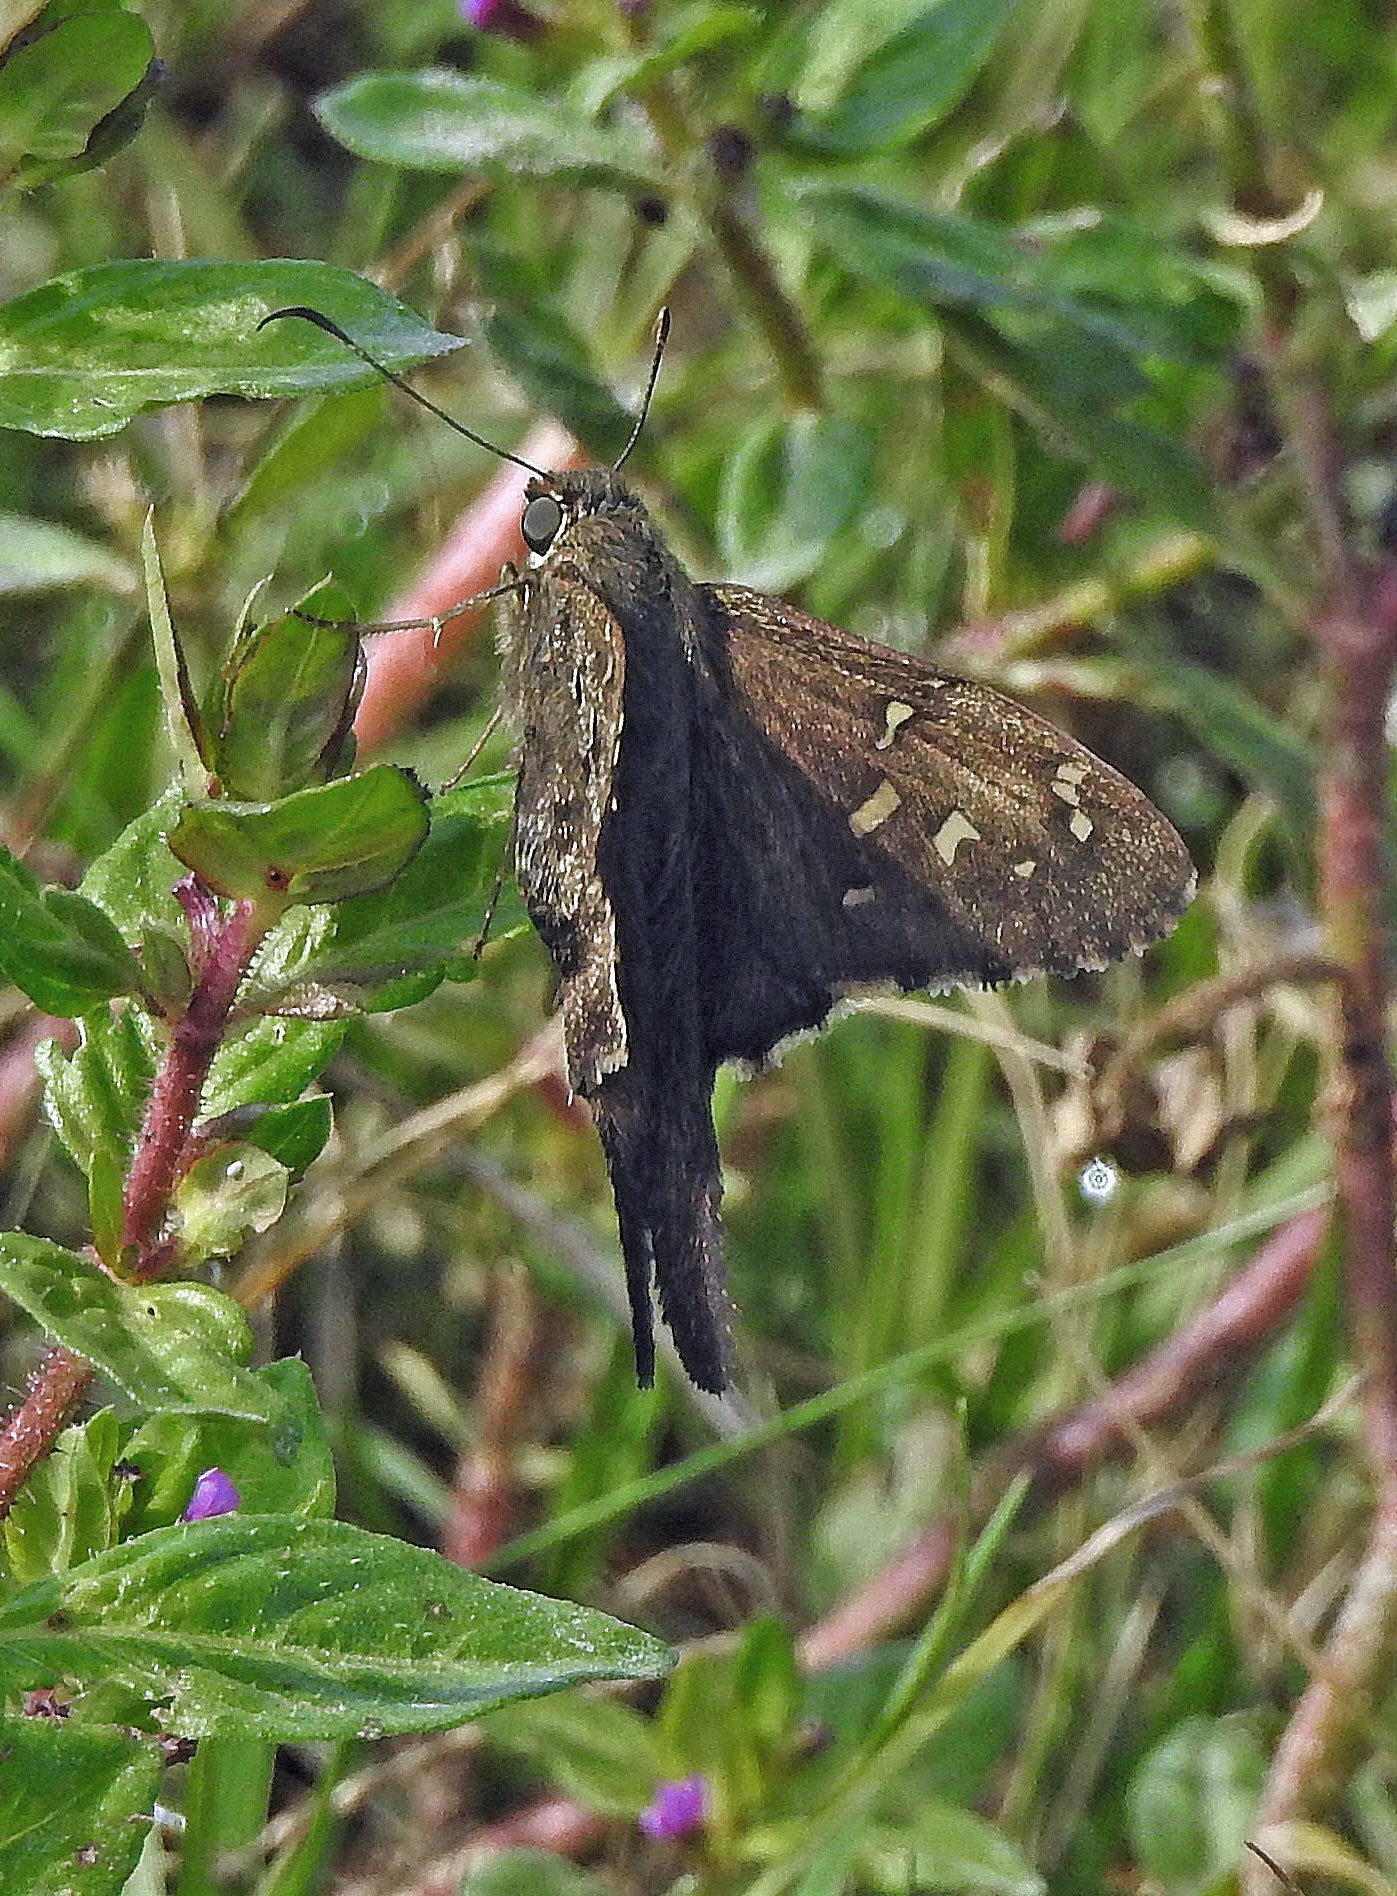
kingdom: Animalia
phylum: Arthropoda
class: Insecta
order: Lepidoptera
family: Hesperiidae
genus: Thorybes
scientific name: Thorybes
